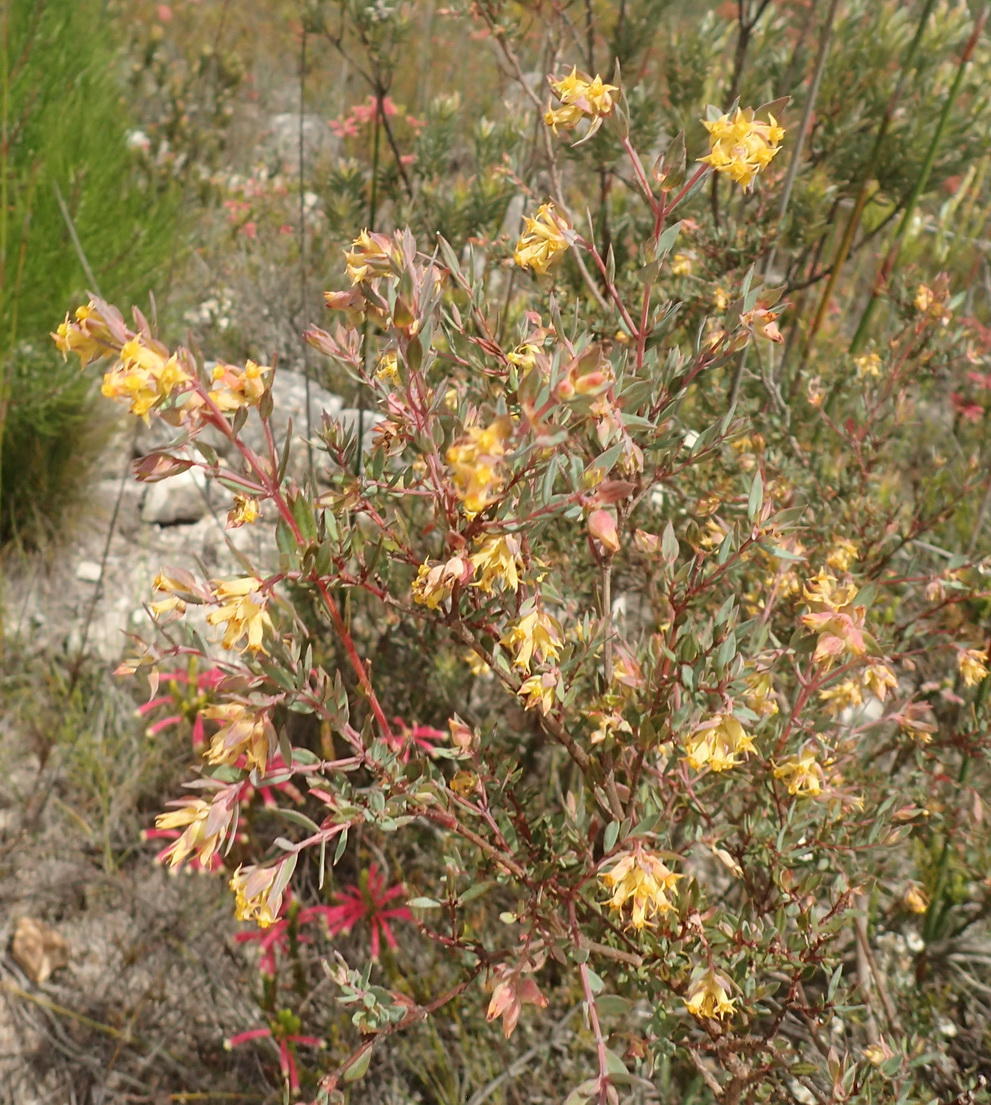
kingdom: Plantae
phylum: Tracheophyta
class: Magnoliopsida
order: Myrtales
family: Penaeaceae
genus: Penaea
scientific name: Penaea acutifolia
